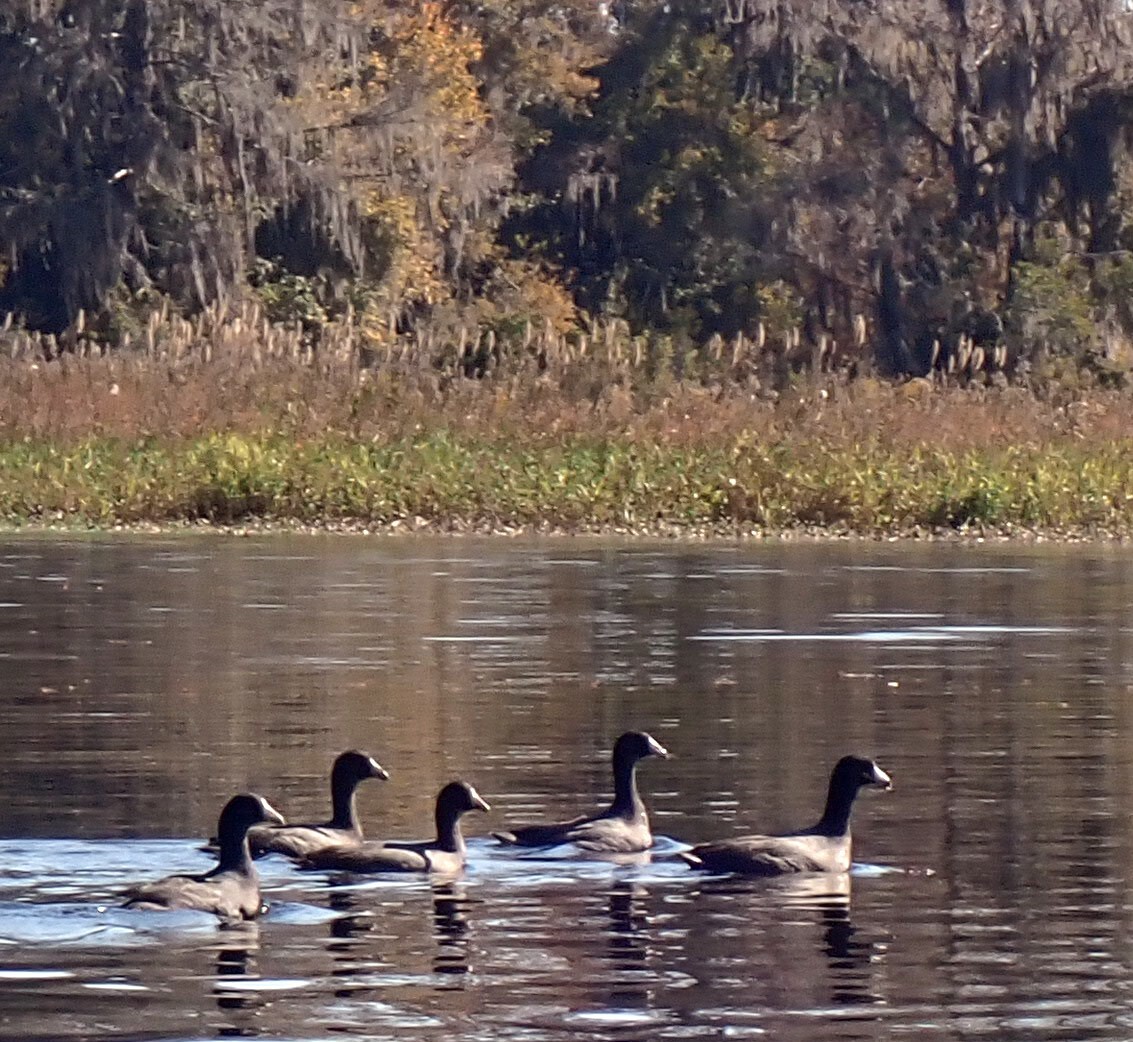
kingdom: Animalia
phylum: Chordata
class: Aves
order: Gruiformes
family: Rallidae
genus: Fulica
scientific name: Fulica americana
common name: American coot
